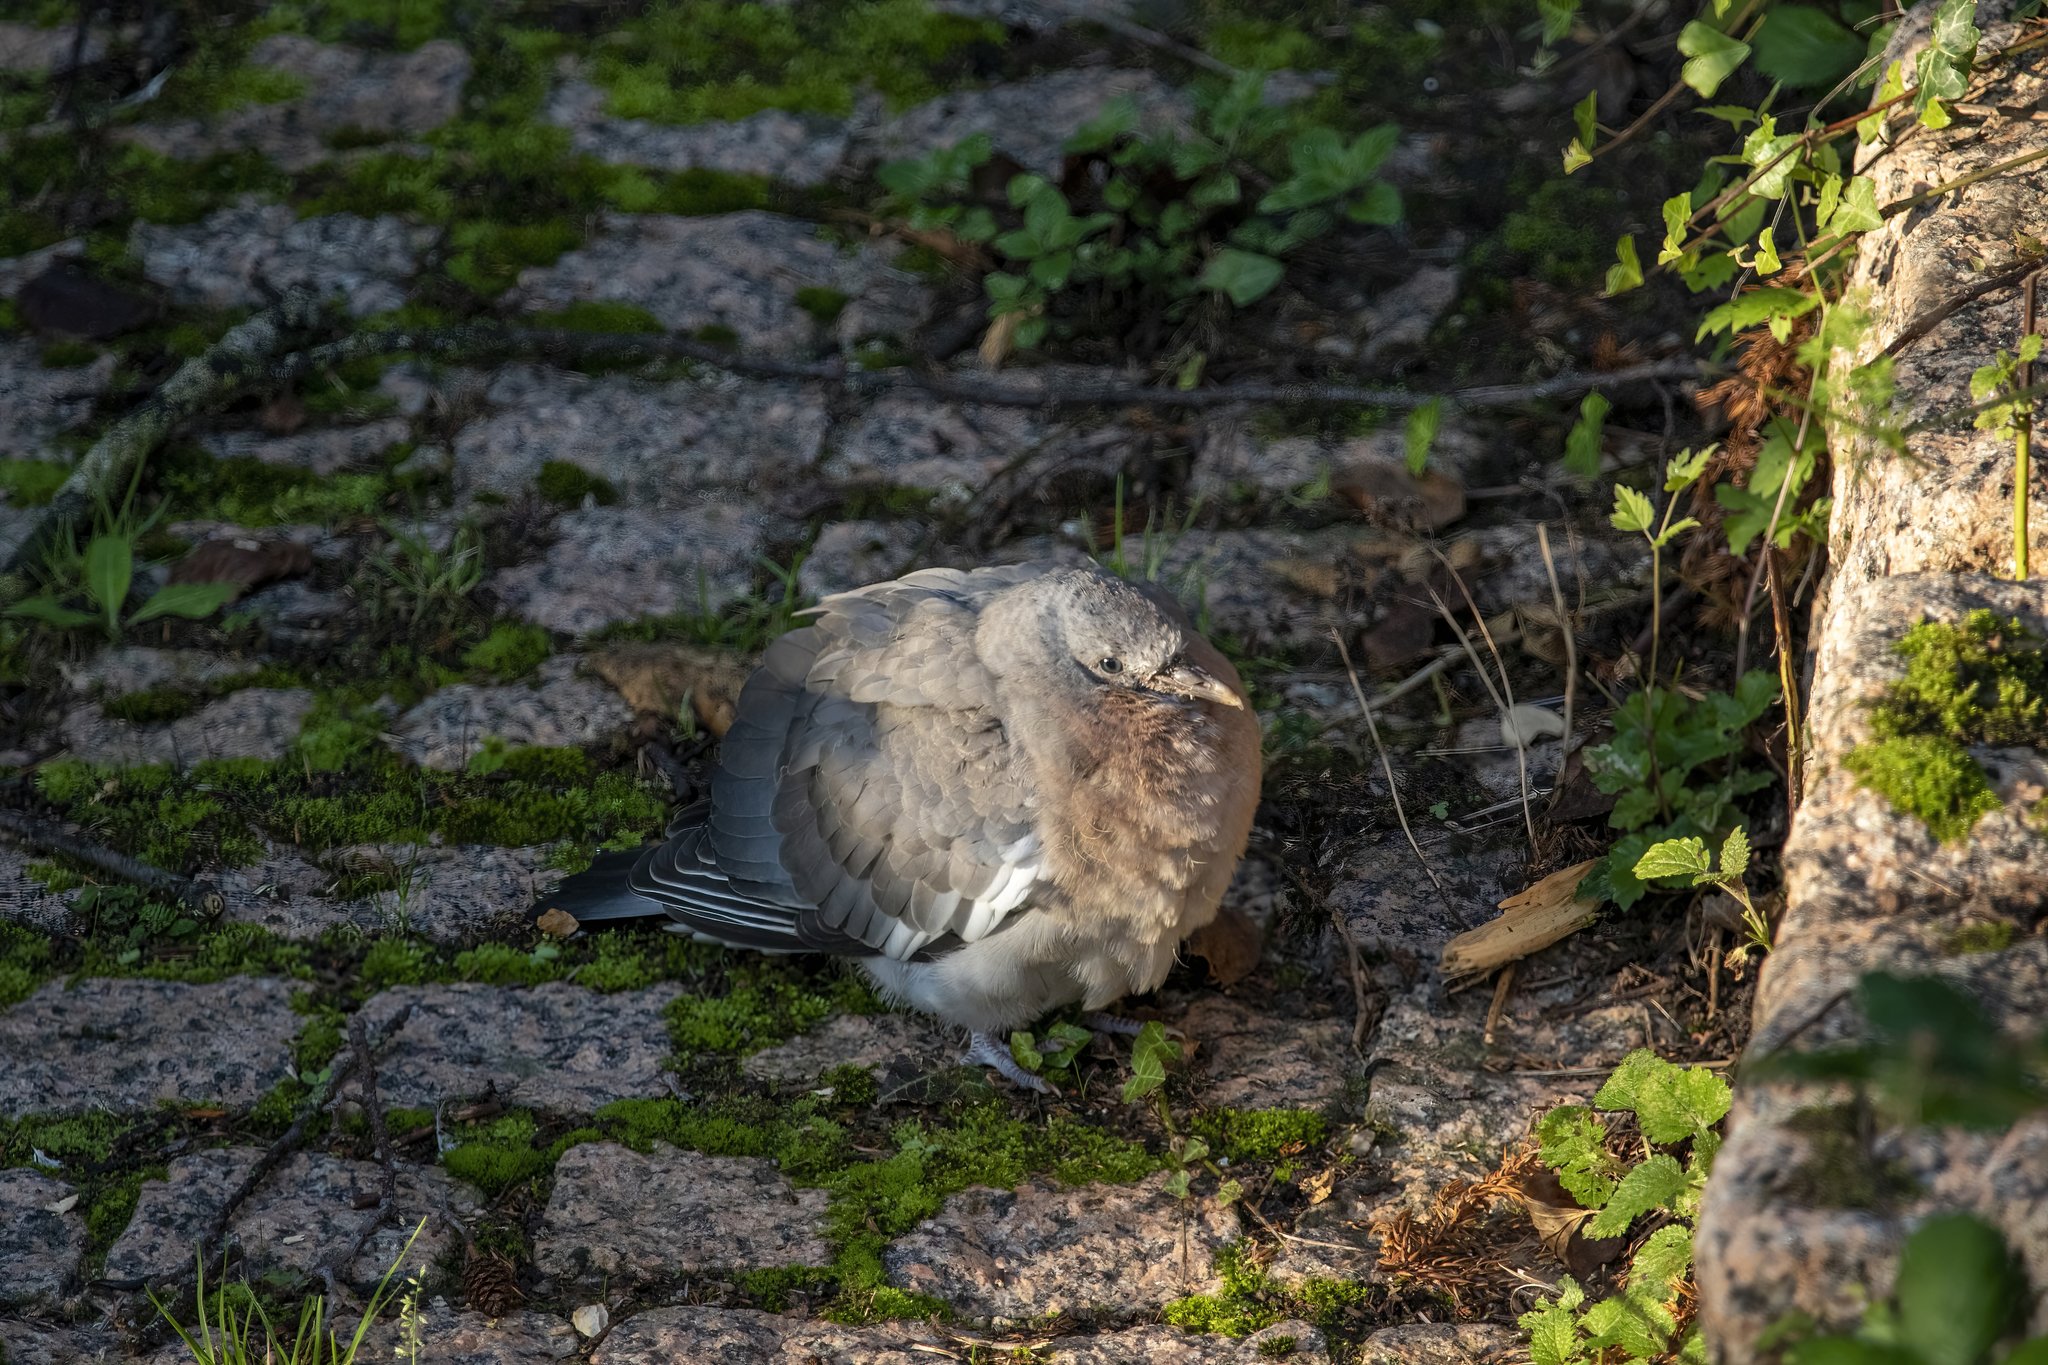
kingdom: Animalia
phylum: Chordata
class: Aves
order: Columbiformes
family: Columbidae
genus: Columba
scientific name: Columba palumbus
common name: Common wood pigeon
